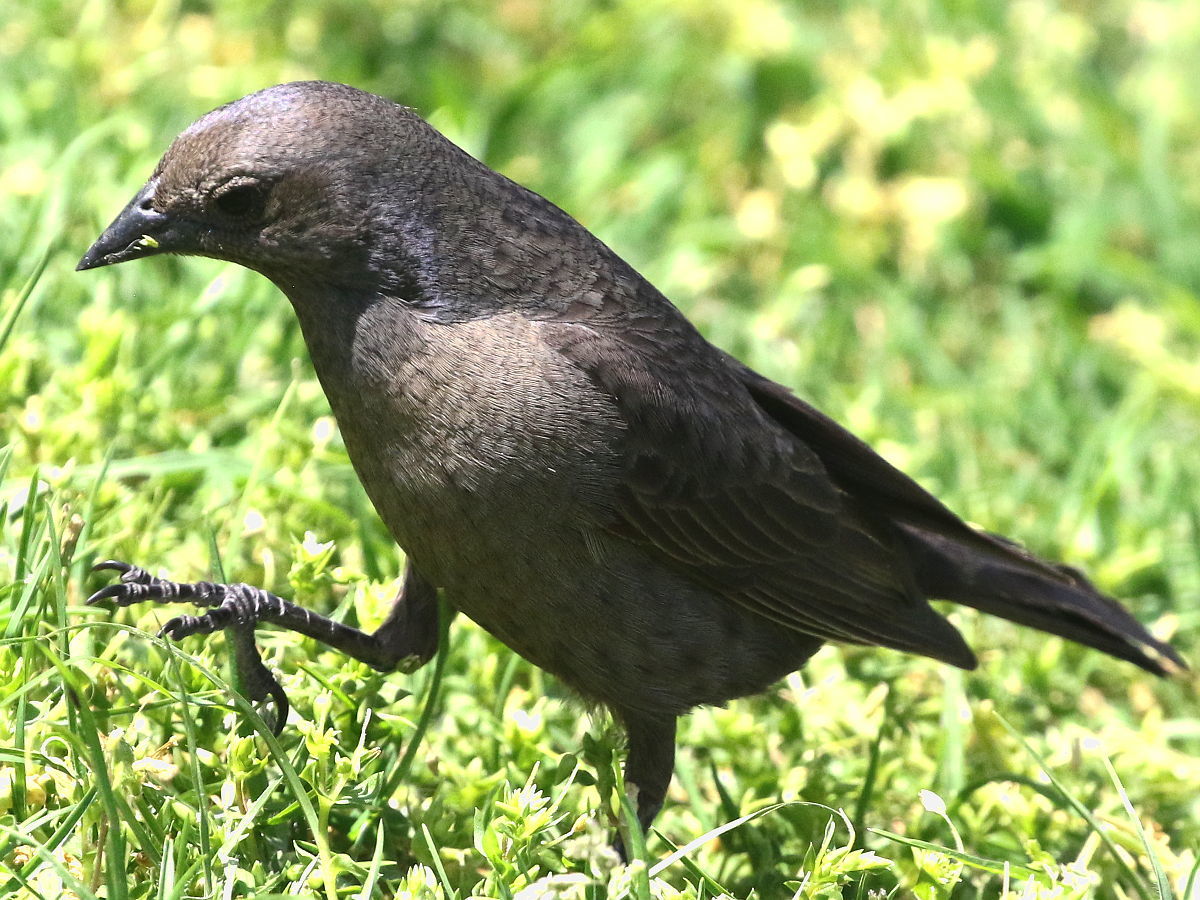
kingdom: Animalia
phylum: Chordata
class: Aves
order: Passeriformes
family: Icteridae
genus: Molothrus
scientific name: Molothrus bonariensis
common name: Shiny cowbird
